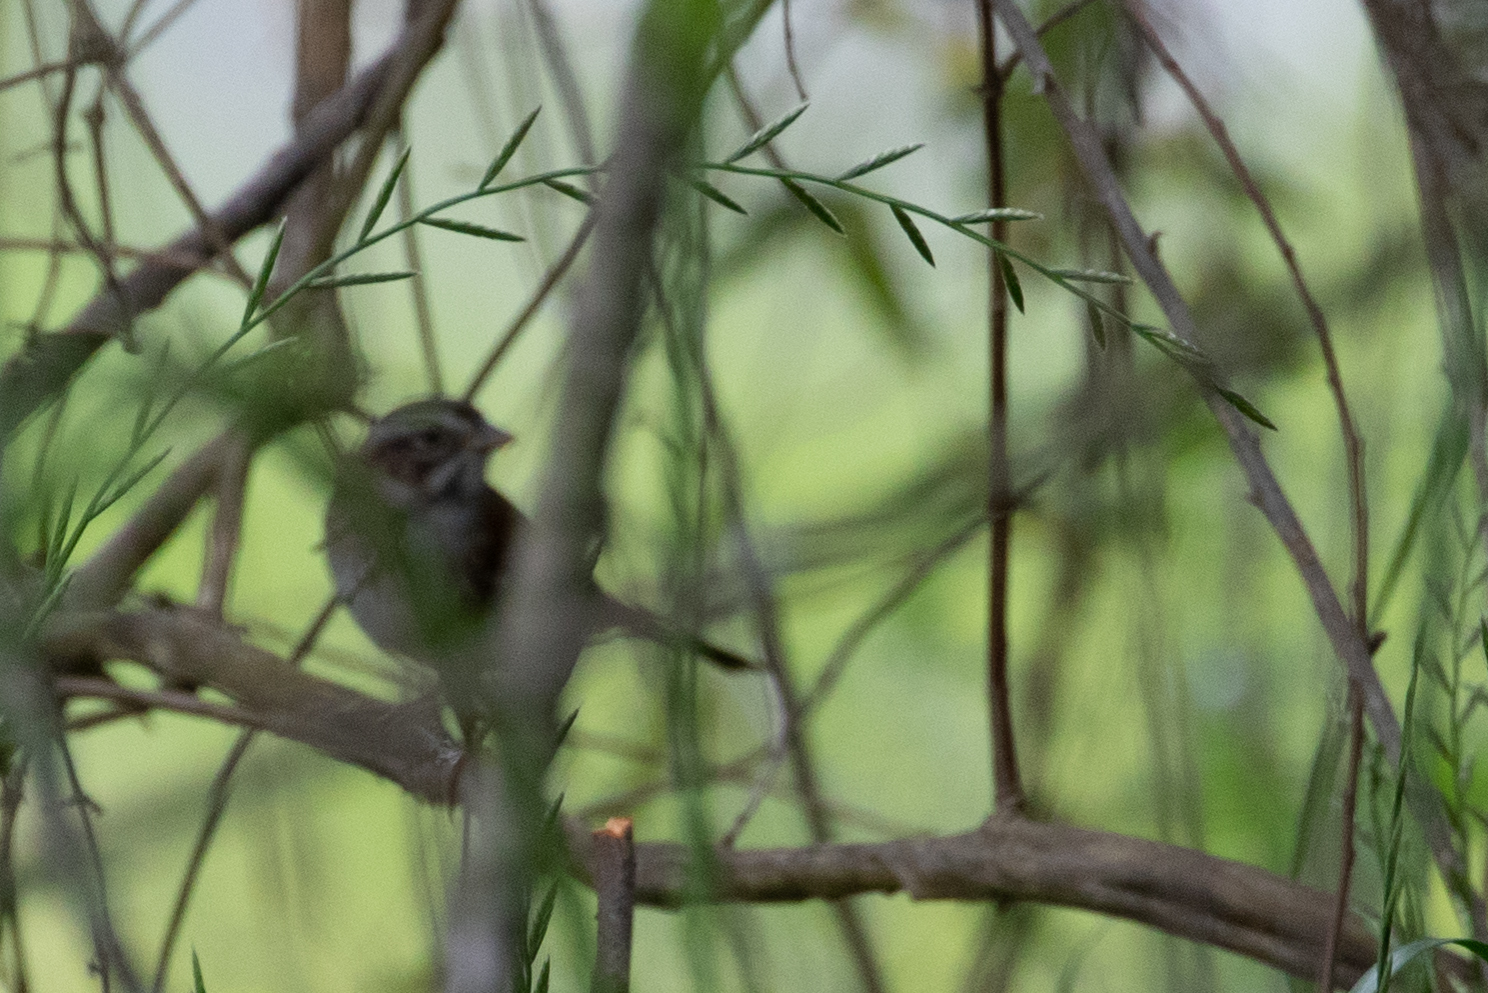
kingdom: Animalia
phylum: Chordata
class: Aves
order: Passeriformes
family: Passerellidae
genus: Melospiza
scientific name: Melospiza georgiana
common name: Swamp sparrow
